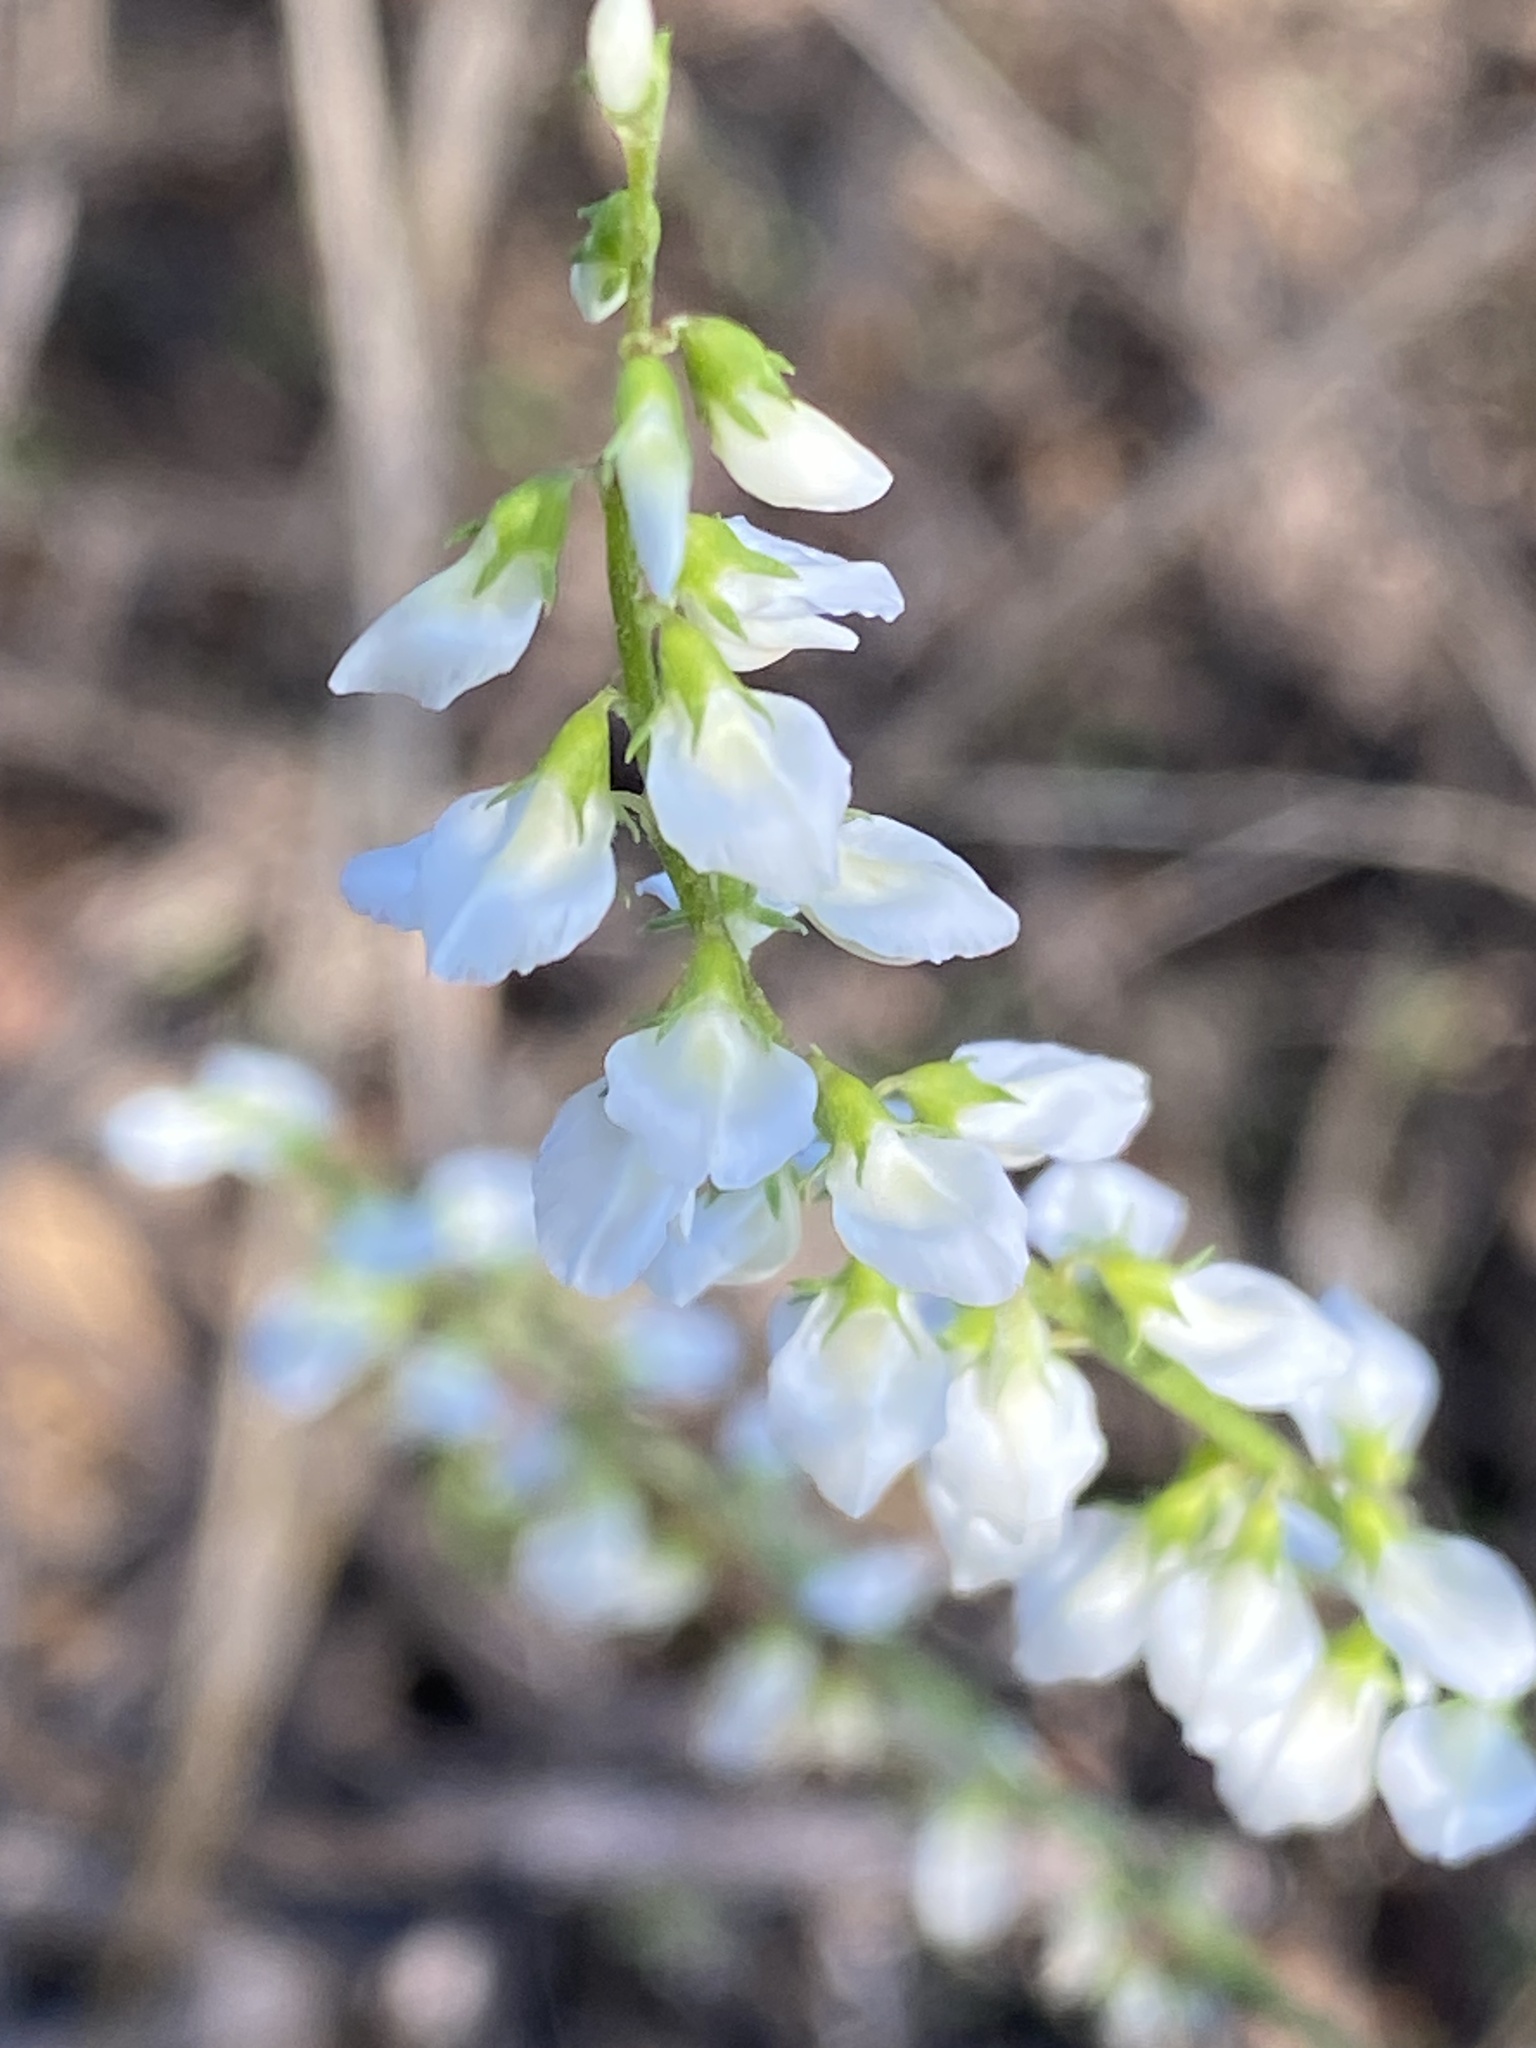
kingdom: Plantae
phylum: Tracheophyta
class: Magnoliopsida
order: Fabales
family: Fabaceae
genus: Melilotus
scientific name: Melilotus albus
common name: White melilot
